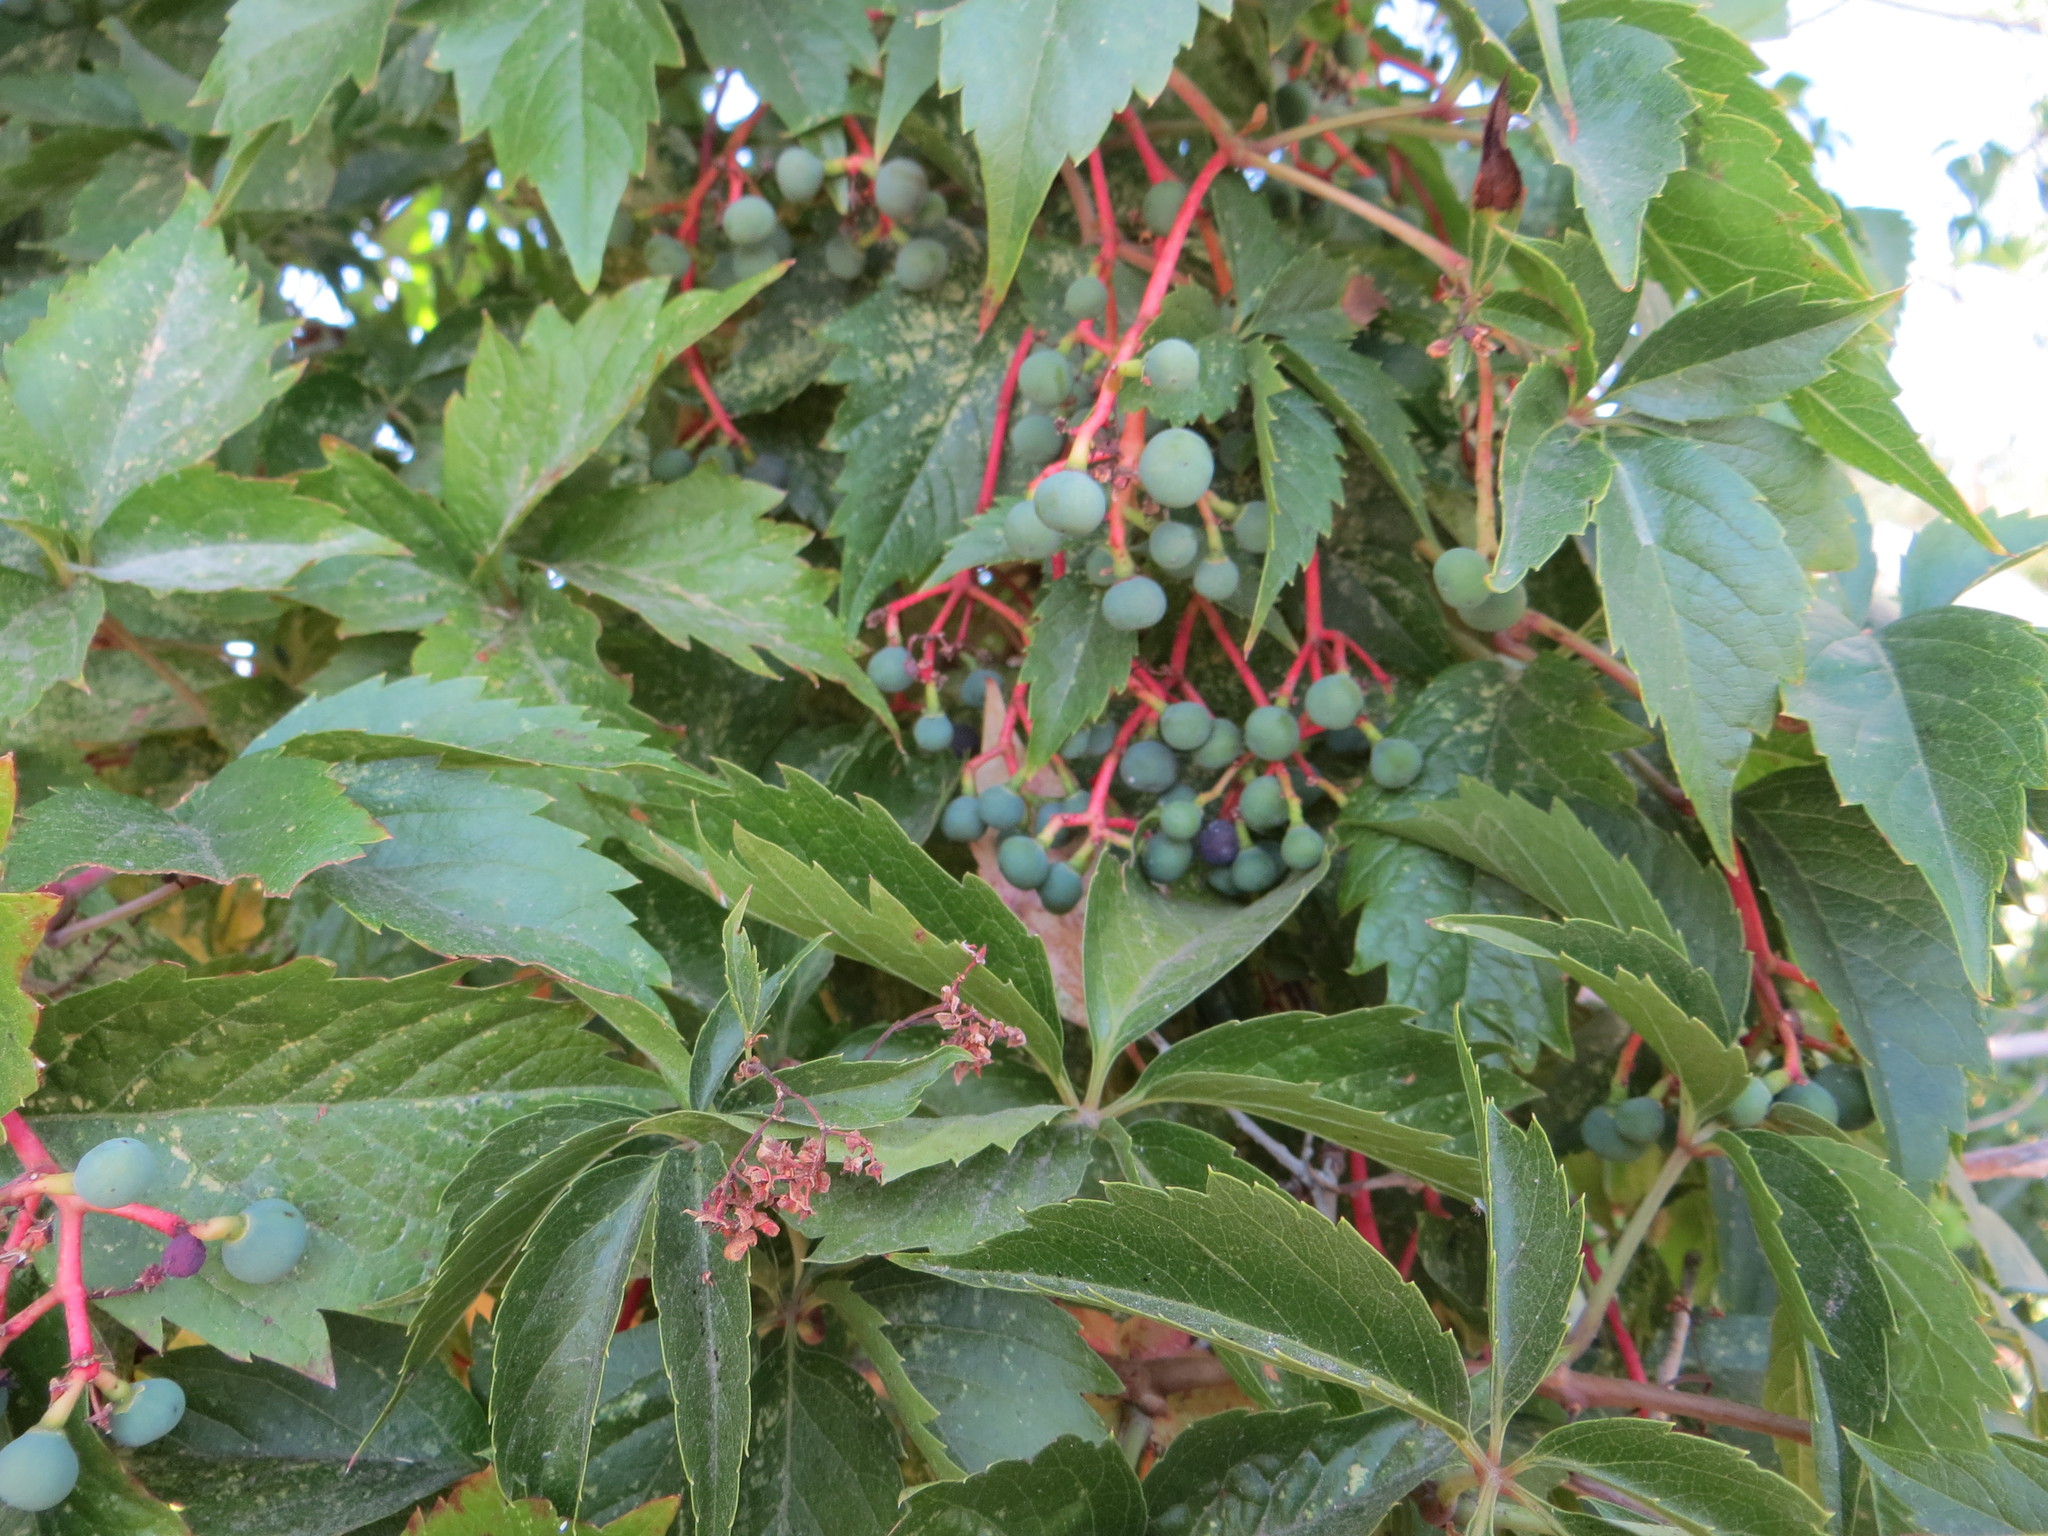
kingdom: Plantae
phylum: Tracheophyta
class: Magnoliopsida
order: Vitales
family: Vitaceae
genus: Parthenocissus
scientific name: Parthenocissus quinquefolia
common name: Virginia-creeper
